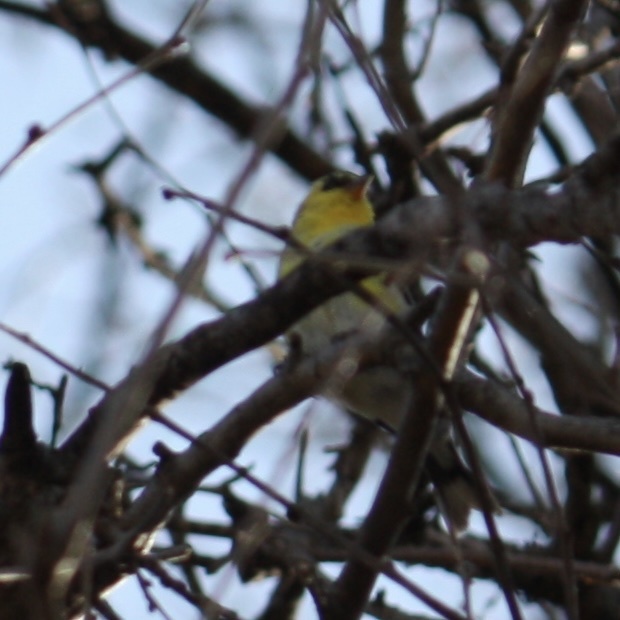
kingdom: Animalia
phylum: Chordata
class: Aves
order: Passeriformes
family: Fringillidae
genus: Spinus
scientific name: Spinus tristis
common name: American goldfinch
